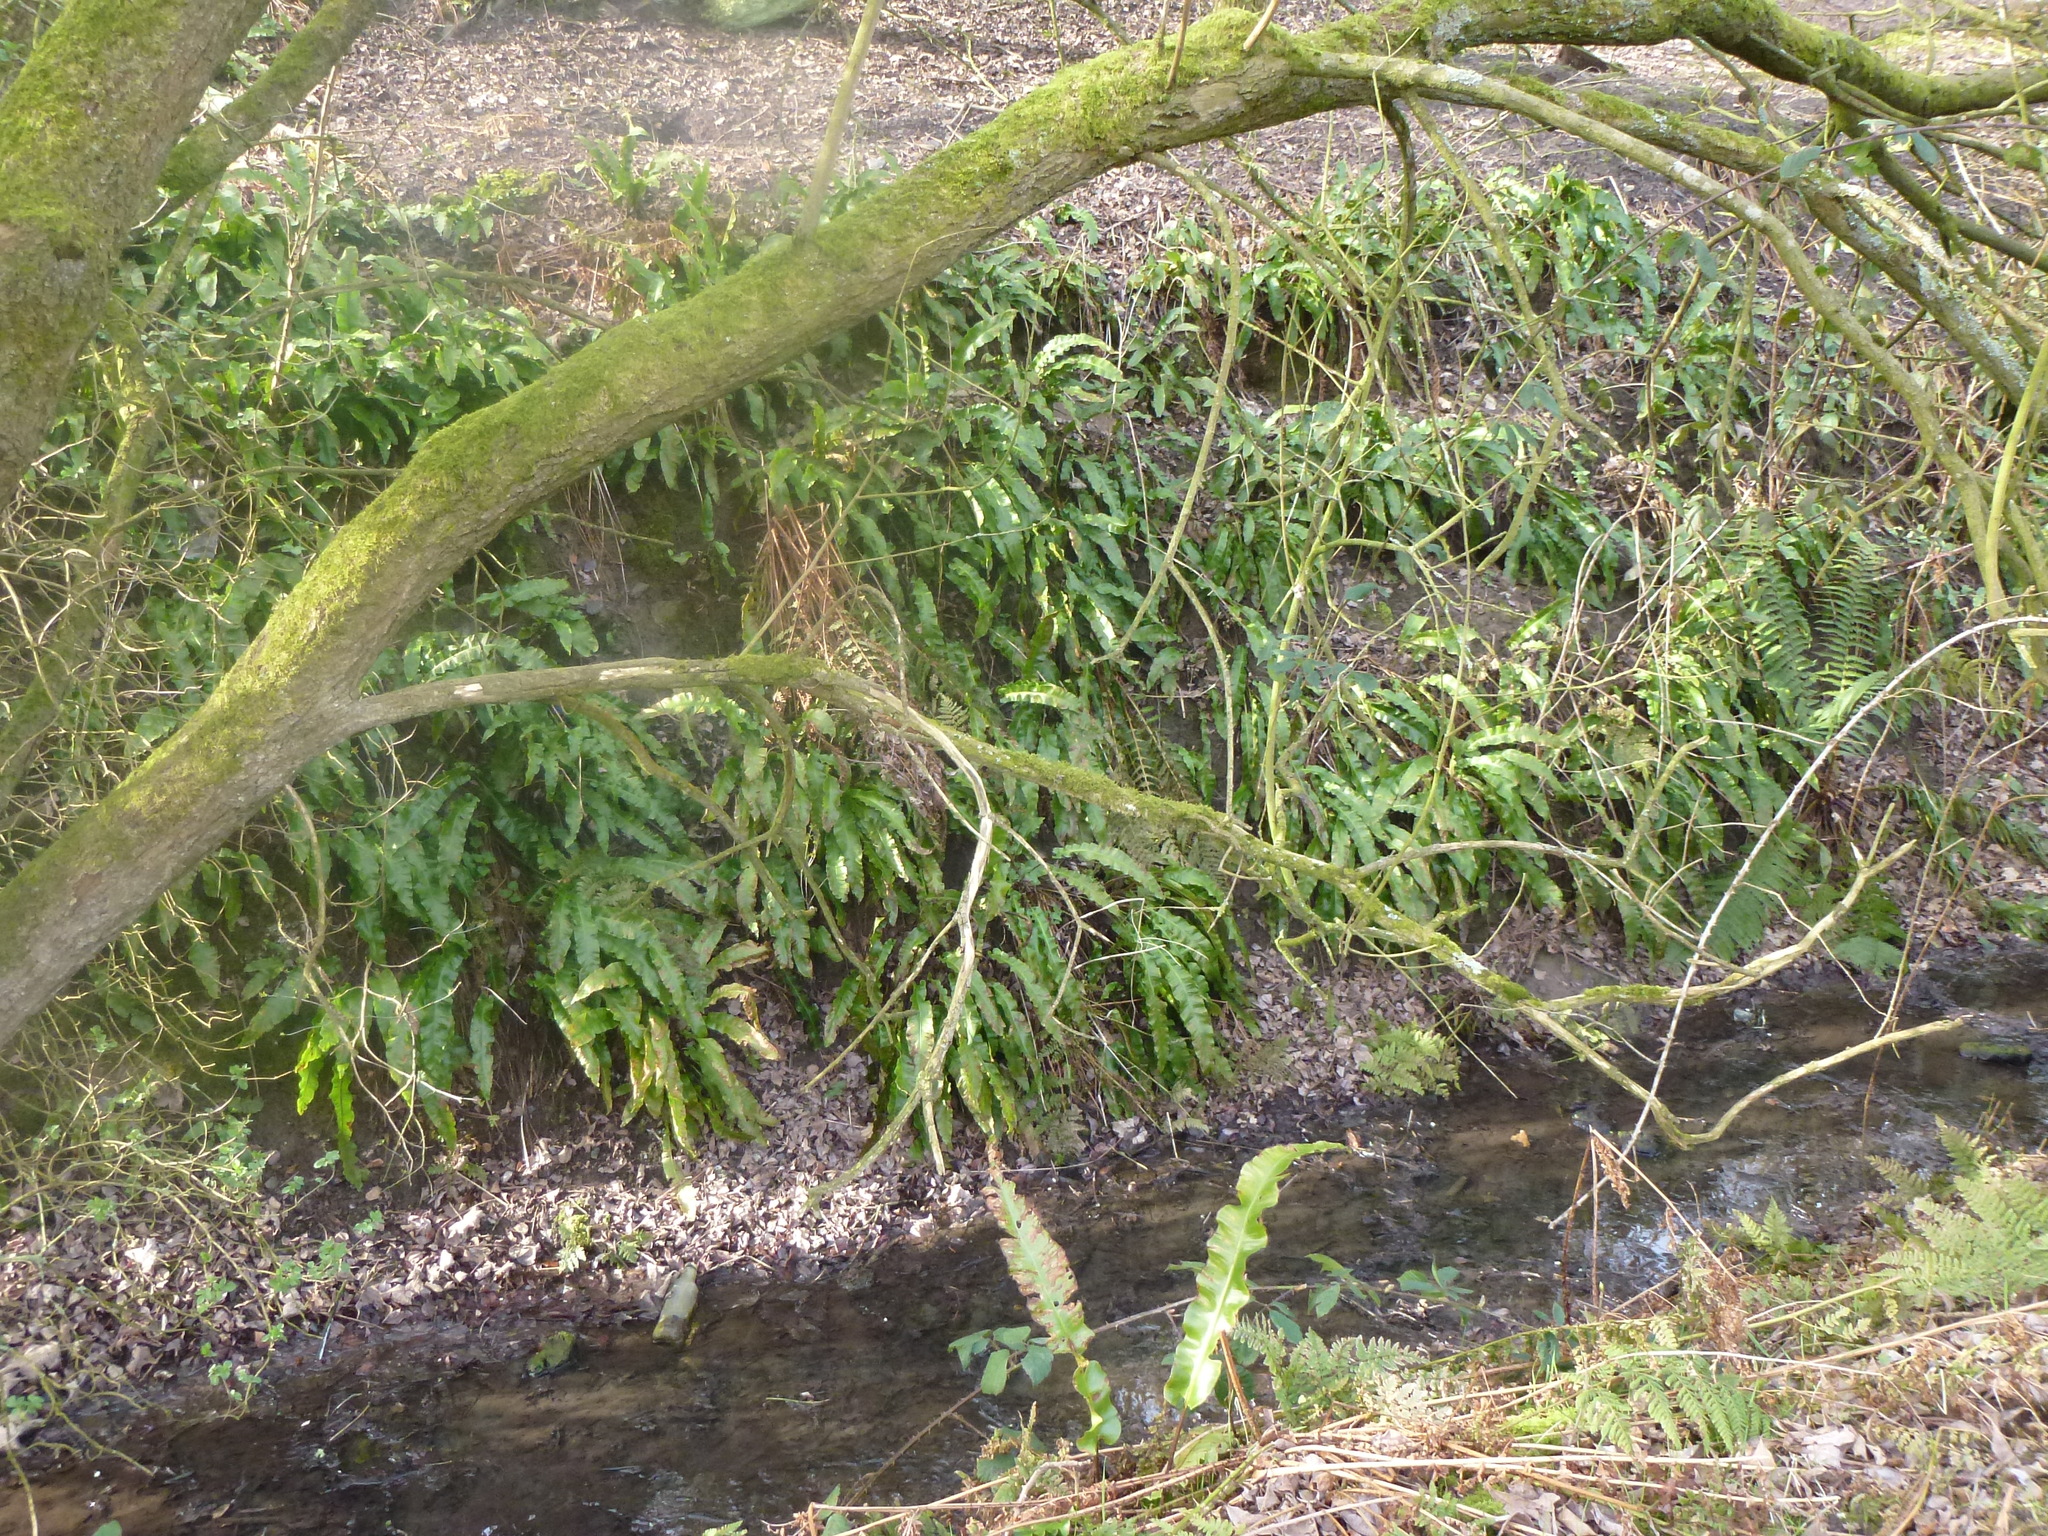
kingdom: Plantae
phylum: Tracheophyta
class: Polypodiopsida
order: Polypodiales
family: Aspleniaceae
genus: Asplenium
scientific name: Asplenium scolopendrium
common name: Hart's-tongue fern
